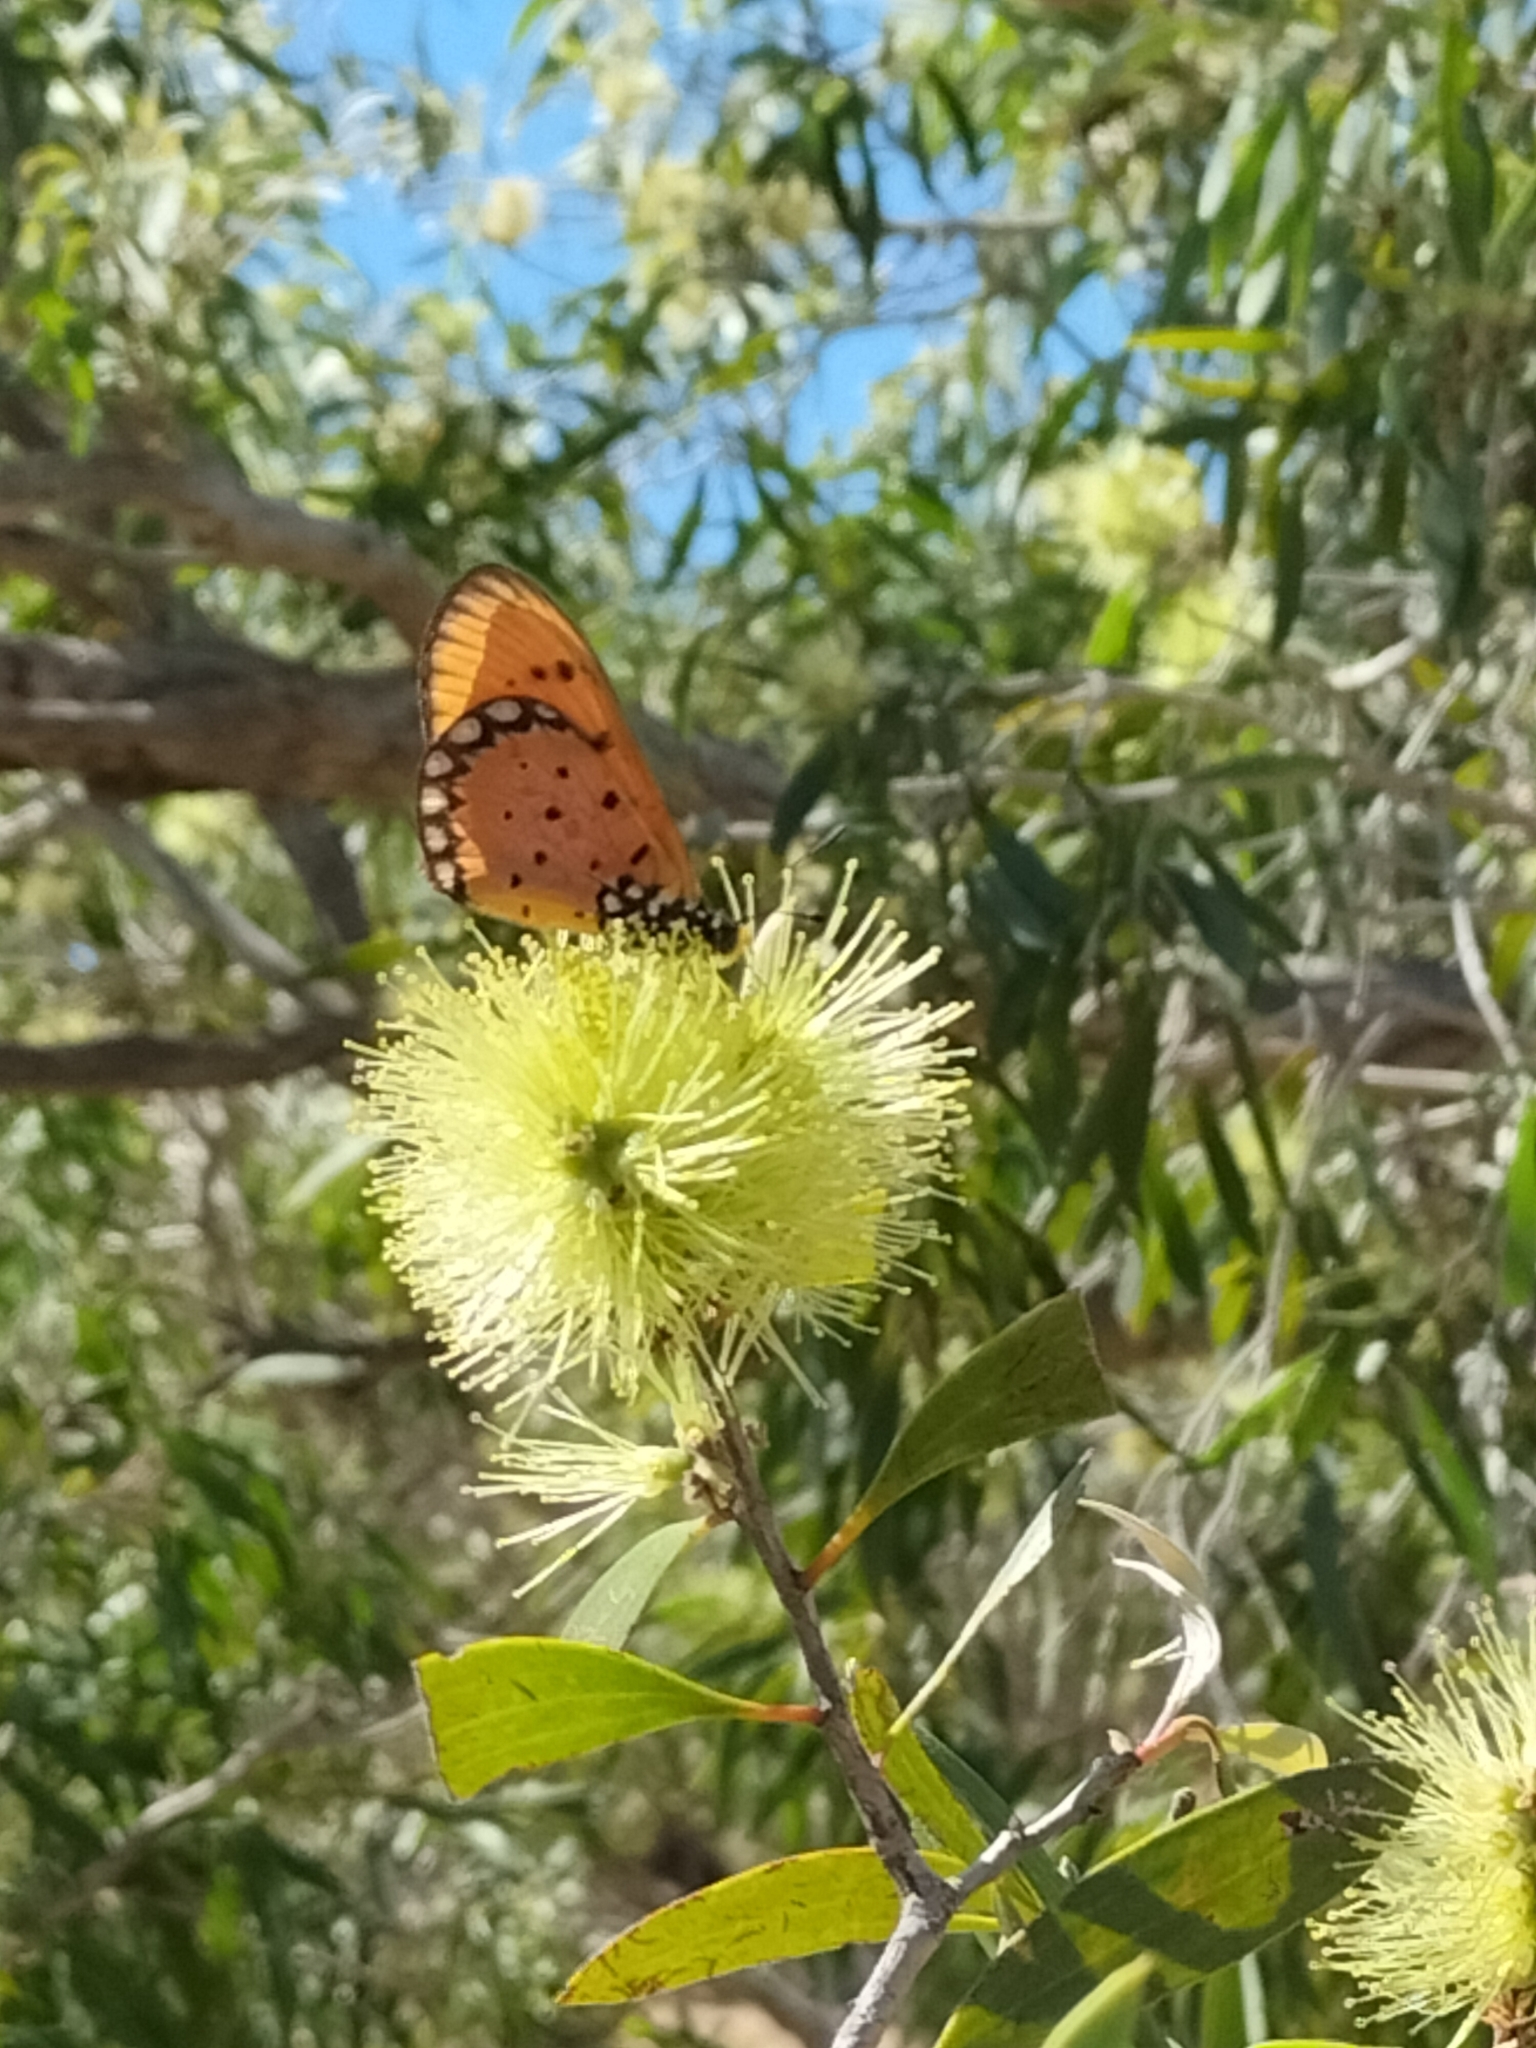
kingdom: Animalia
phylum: Arthropoda
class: Insecta
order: Lepidoptera
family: Nymphalidae
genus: Acraea
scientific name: Acraea terpsicore
